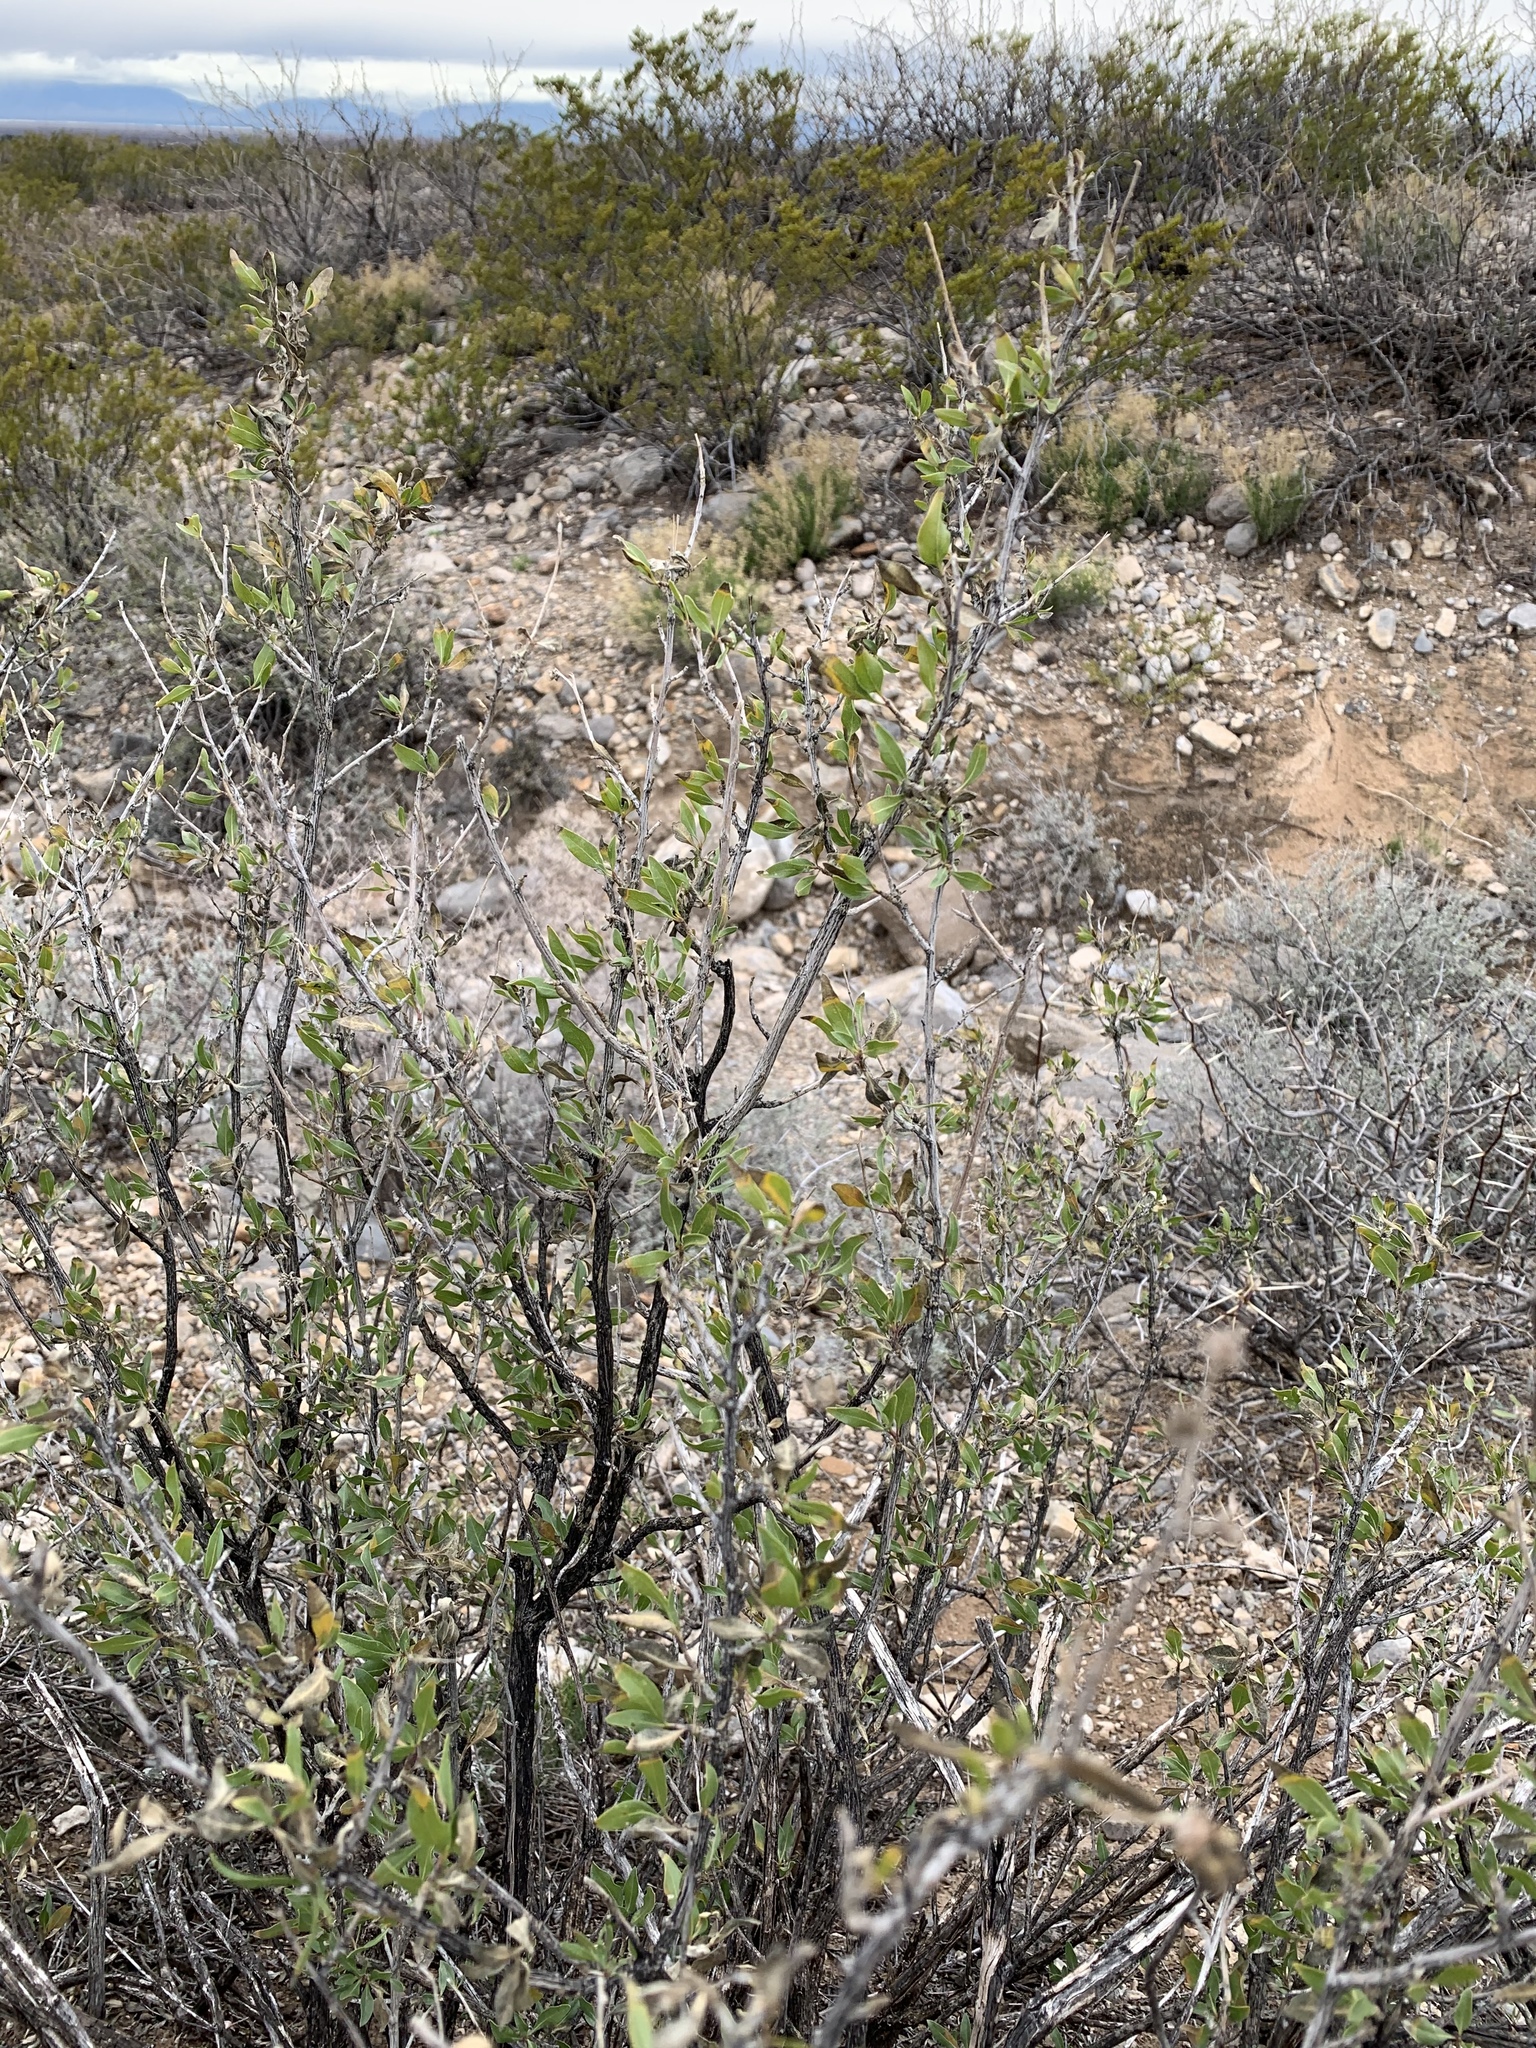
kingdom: Plantae
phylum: Tracheophyta
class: Magnoliopsida
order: Asterales
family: Asteraceae
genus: Flourensia
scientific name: Flourensia cernua
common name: Varnishbush
